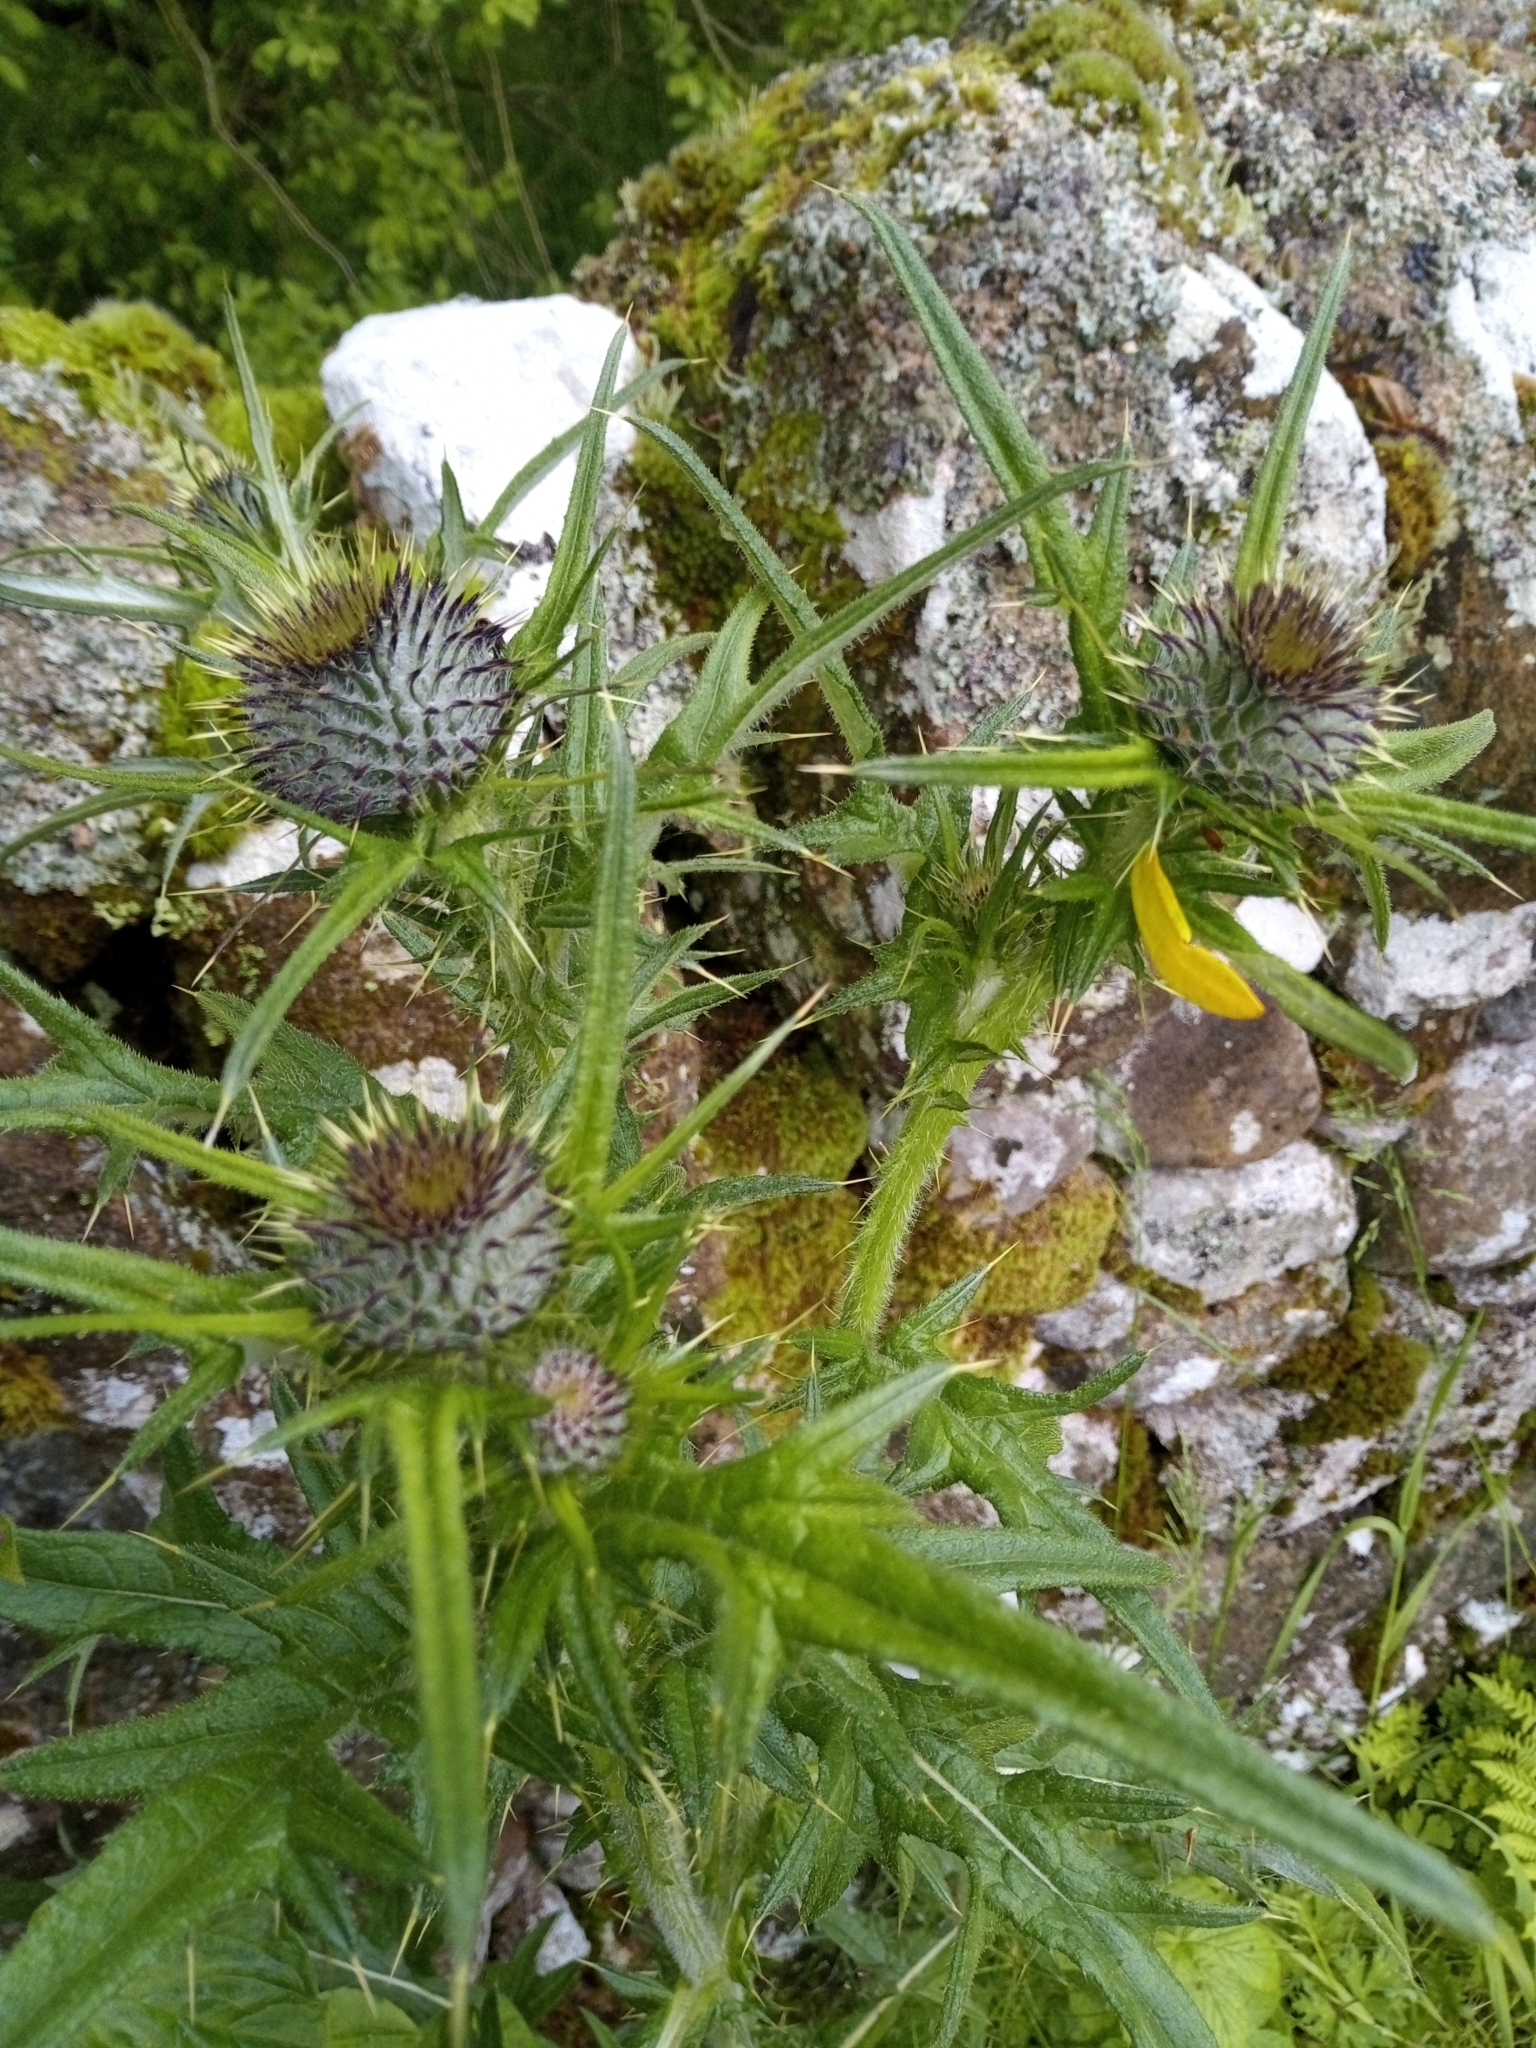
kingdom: Plantae
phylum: Tracheophyta
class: Magnoliopsida
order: Asterales
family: Asteraceae
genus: Cirsium
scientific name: Cirsium vulgare
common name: Bull thistle
